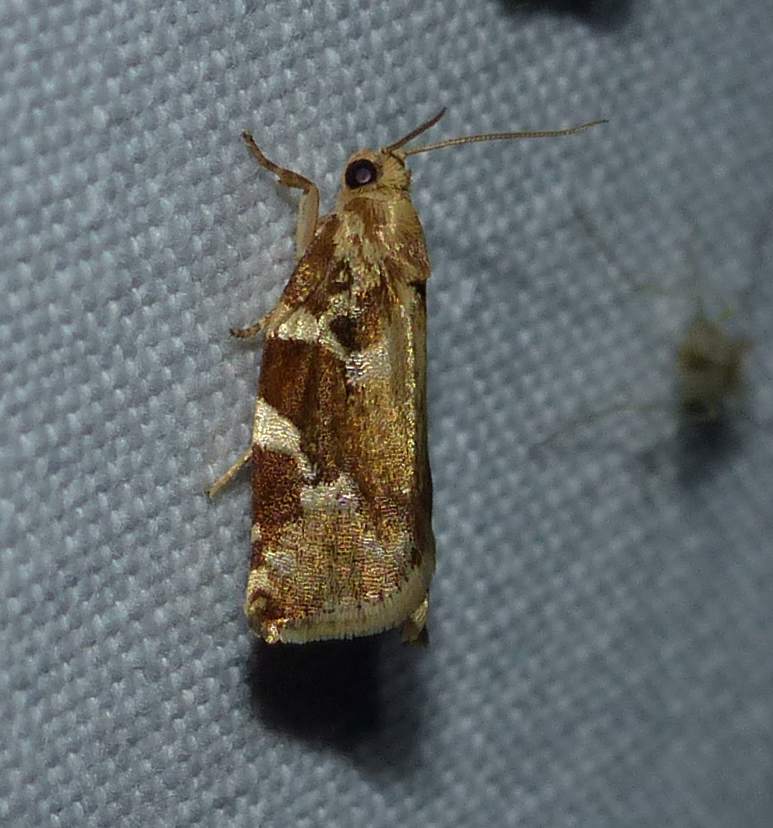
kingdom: Animalia
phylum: Arthropoda
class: Insecta
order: Lepidoptera
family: Tortricidae
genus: Archips
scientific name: Archips semiferanus
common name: Oak leafroller
